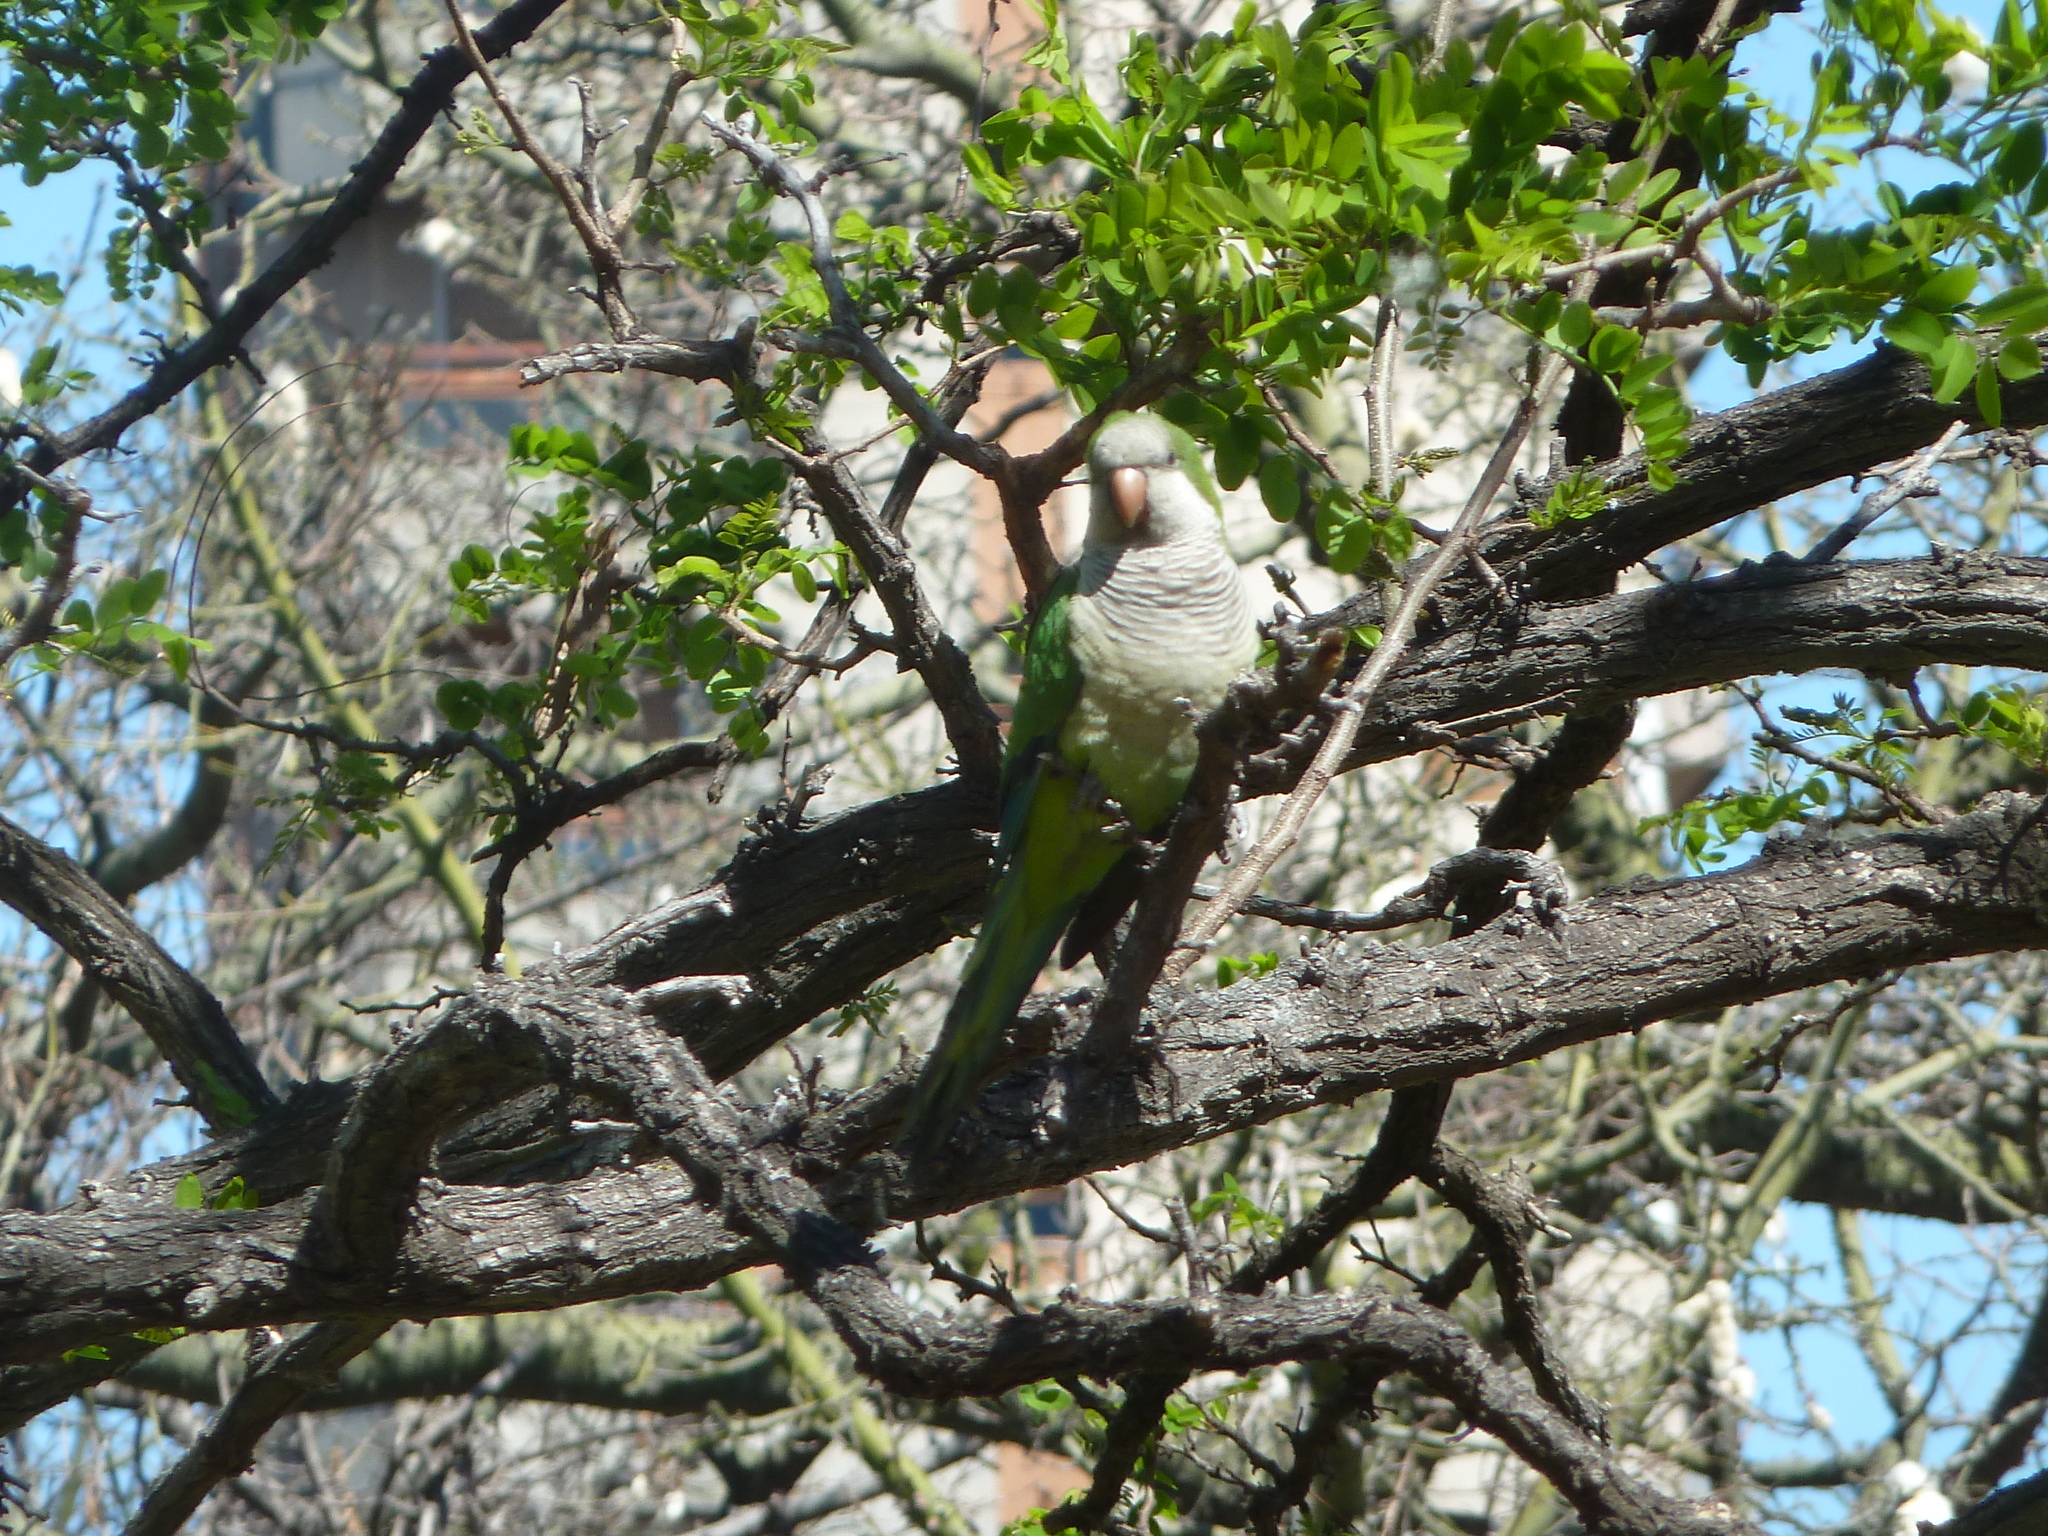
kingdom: Animalia
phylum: Chordata
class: Aves
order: Psittaciformes
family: Psittacidae
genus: Myiopsitta
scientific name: Myiopsitta monachus
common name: Monk parakeet
